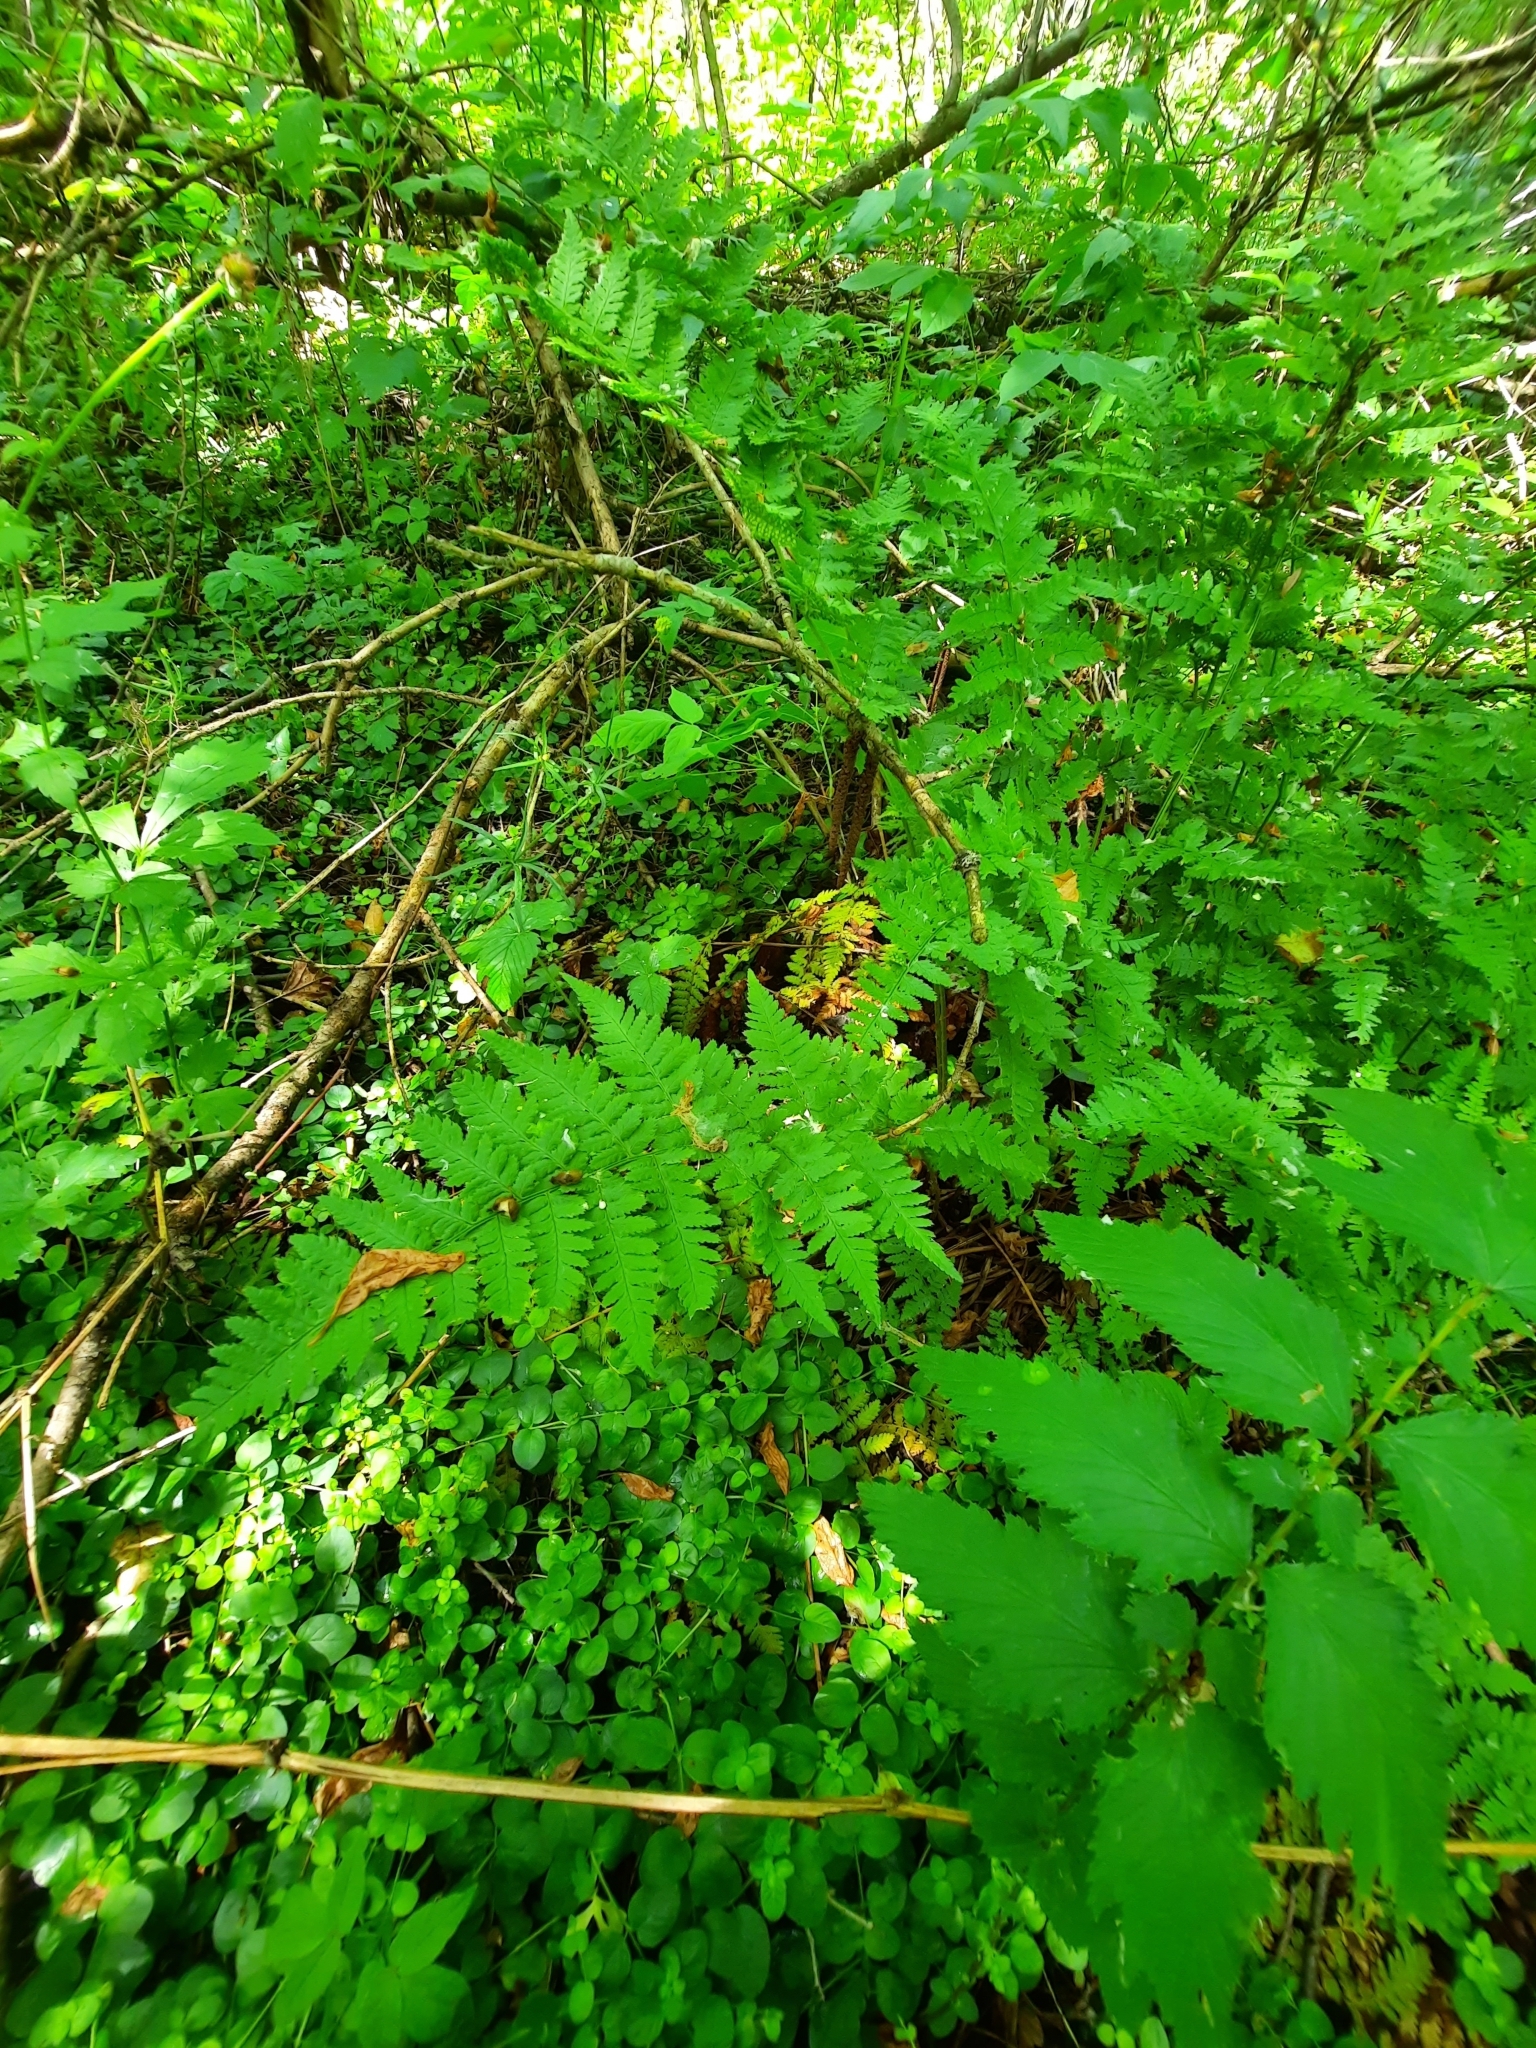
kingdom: Plantae
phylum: Tracheophyta
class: Polypodiopsida
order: Polypodiales
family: Dryopteridaceae
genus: Dryopteris
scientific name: Dryopteris carthusiana
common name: Narrow buckler-fern
